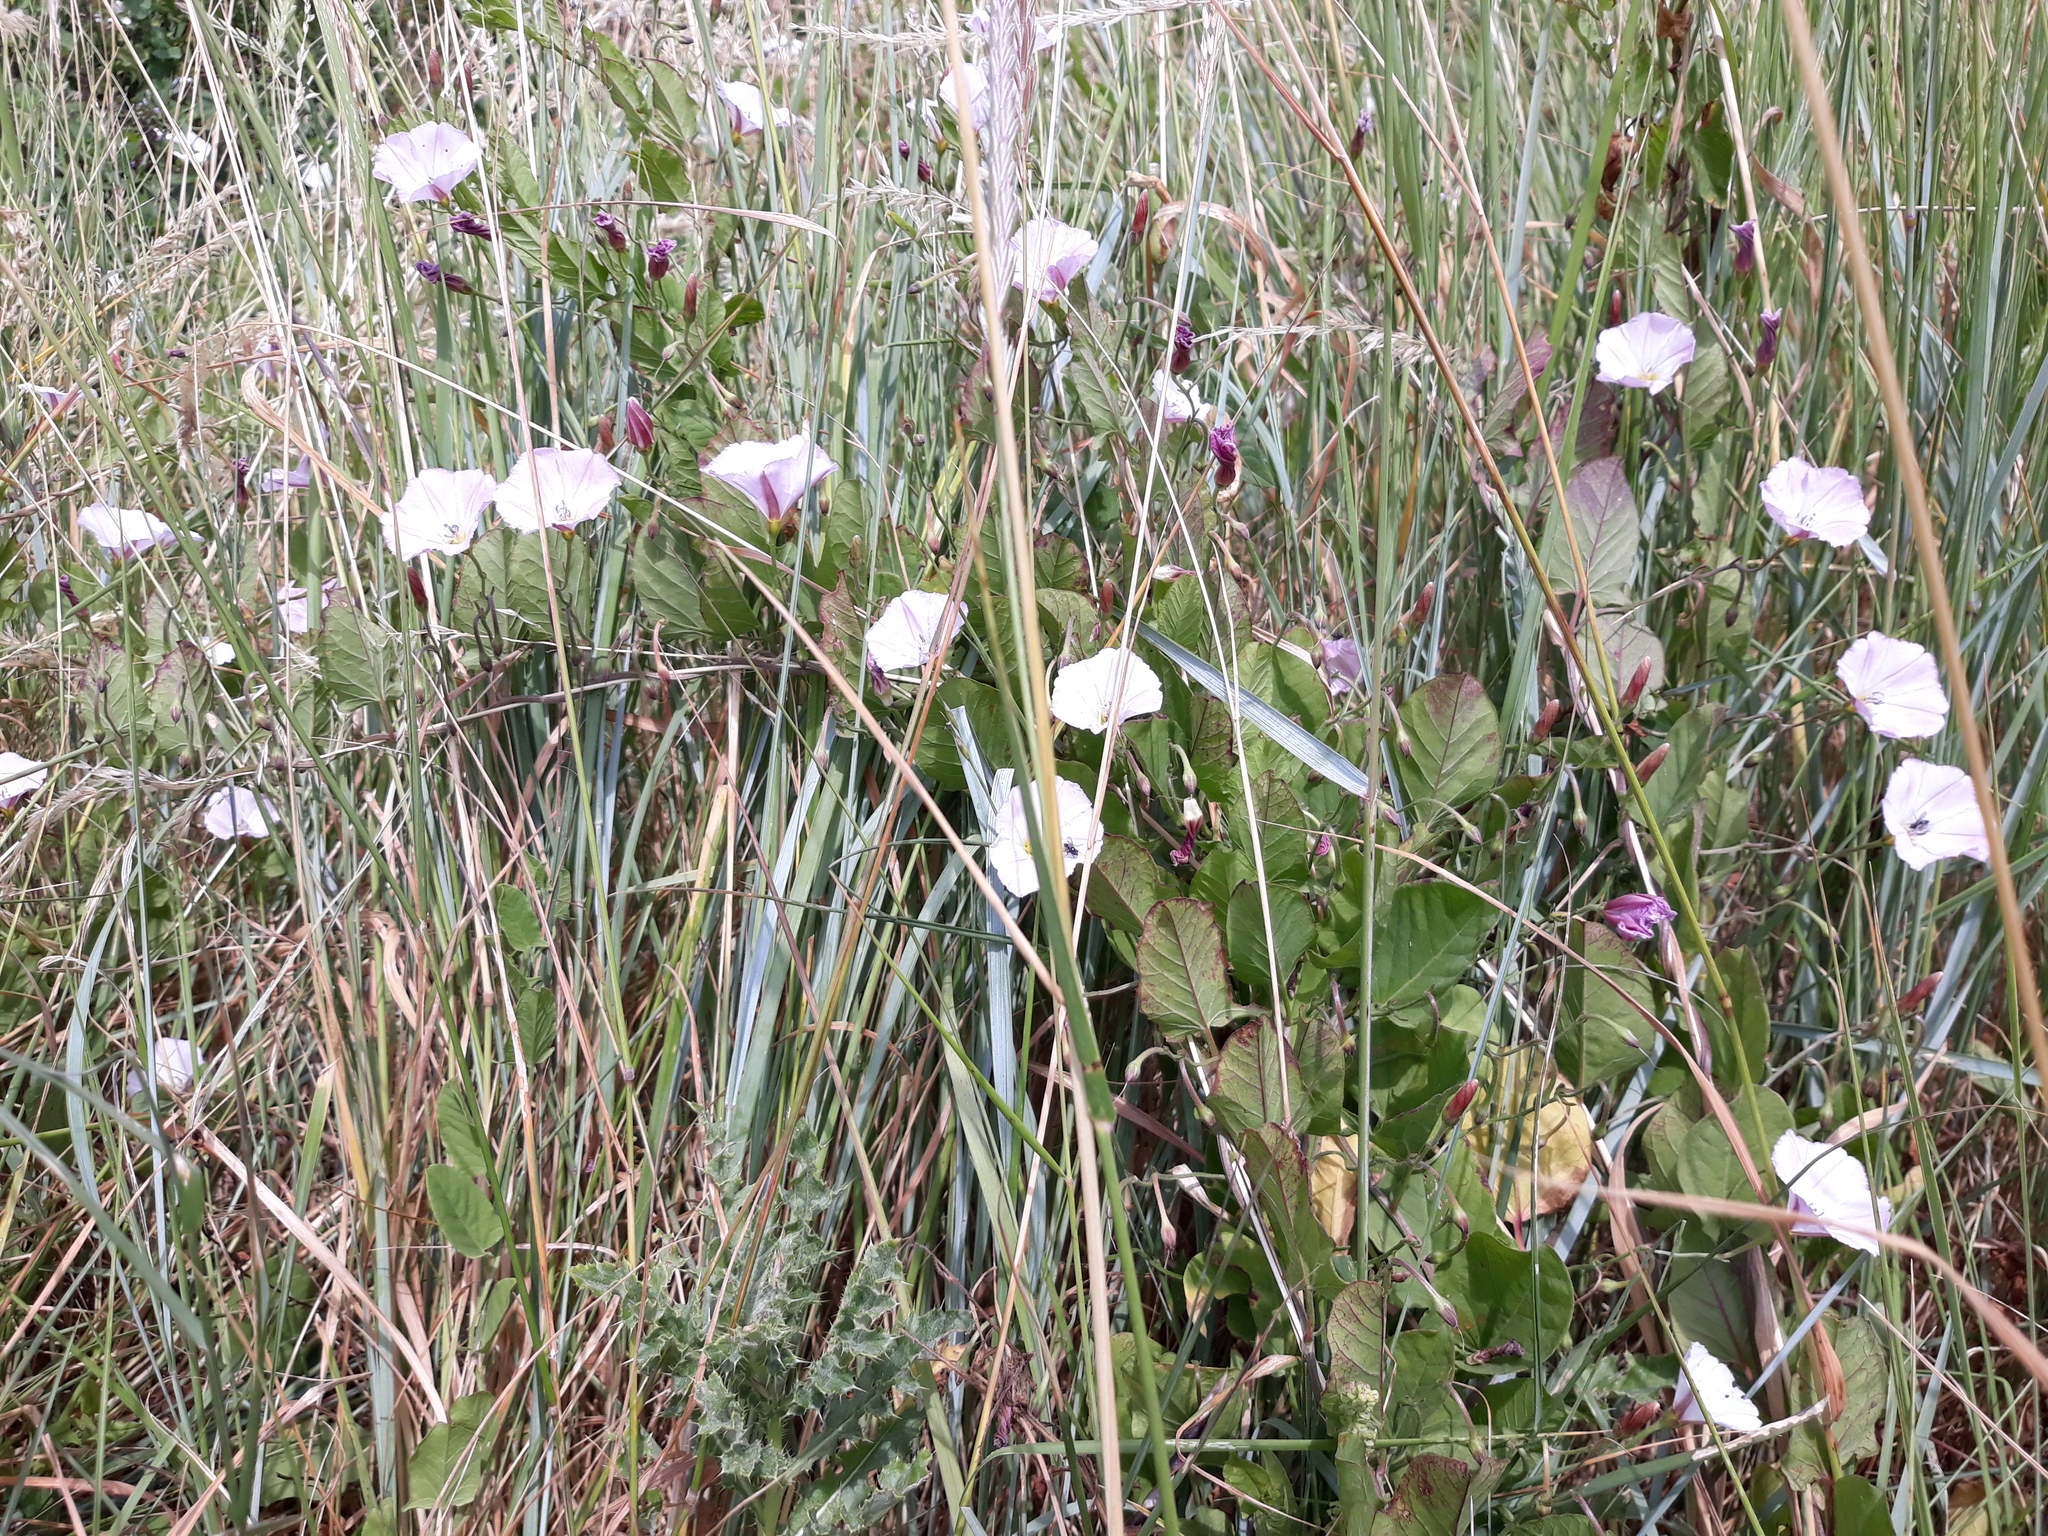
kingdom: Plantae
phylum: Tracheophyta
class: Magnoliopsida
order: Solanales
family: Convolvulaceae
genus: Convolvulus
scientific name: Convolvulus arvensis
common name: Field bindweed
